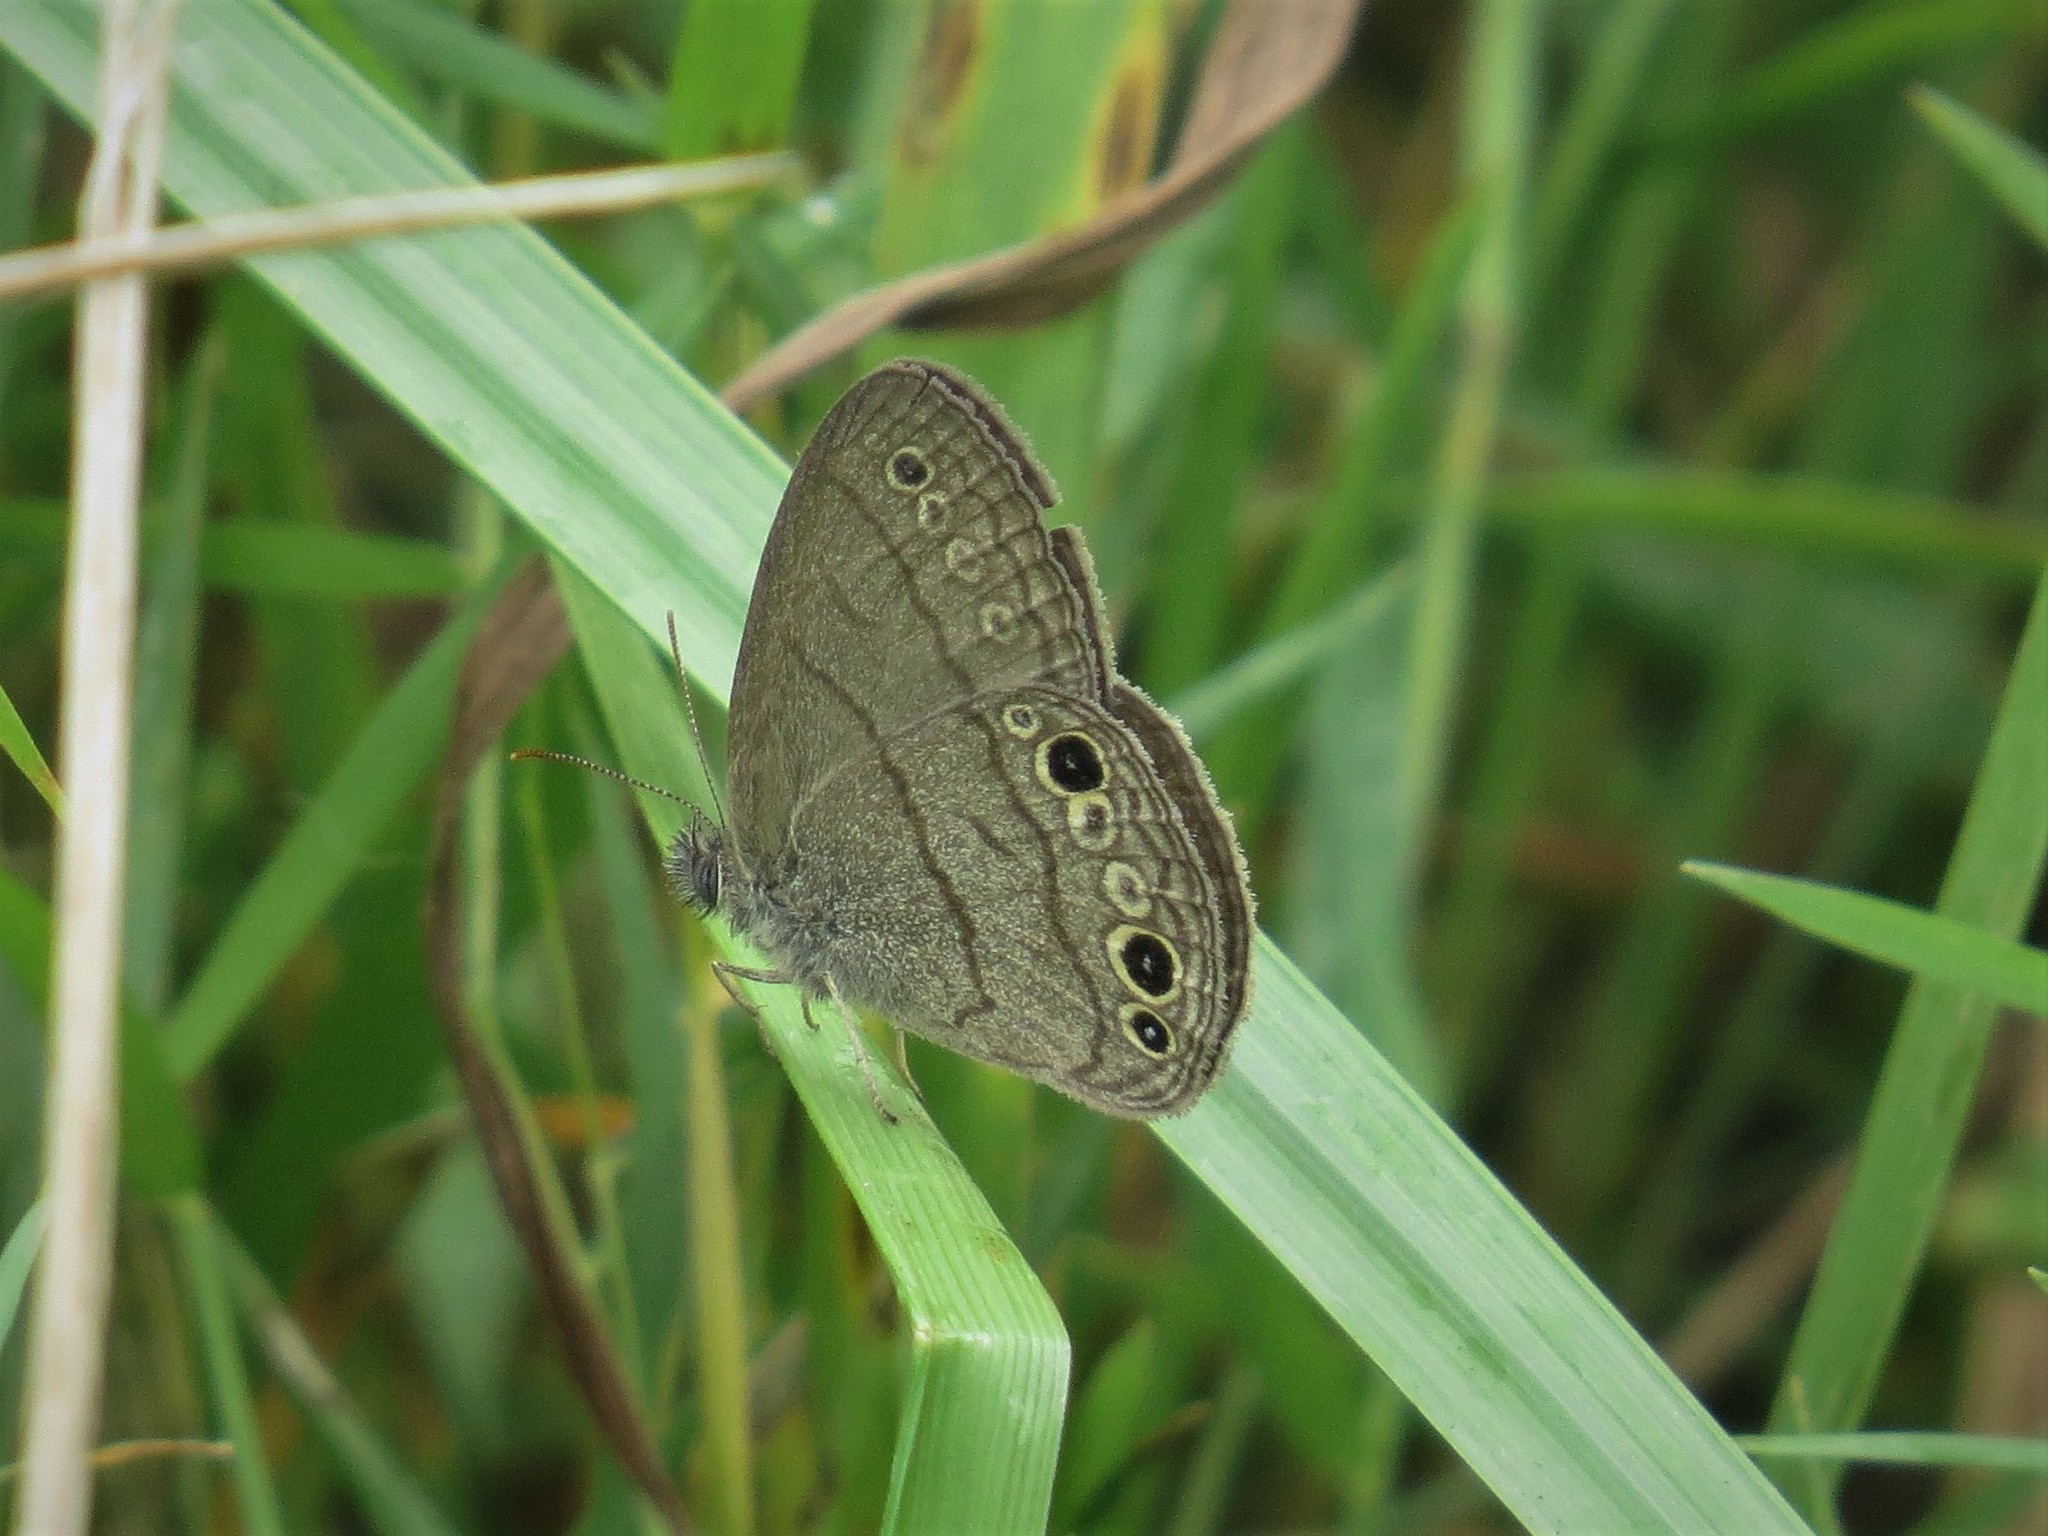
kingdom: Animalia
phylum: Arthropoda
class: Insecta
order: Lepidoptera
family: Nymphalidae
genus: Hermeuptychia
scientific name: Hermeuptychia hermes
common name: Hermes satyr
